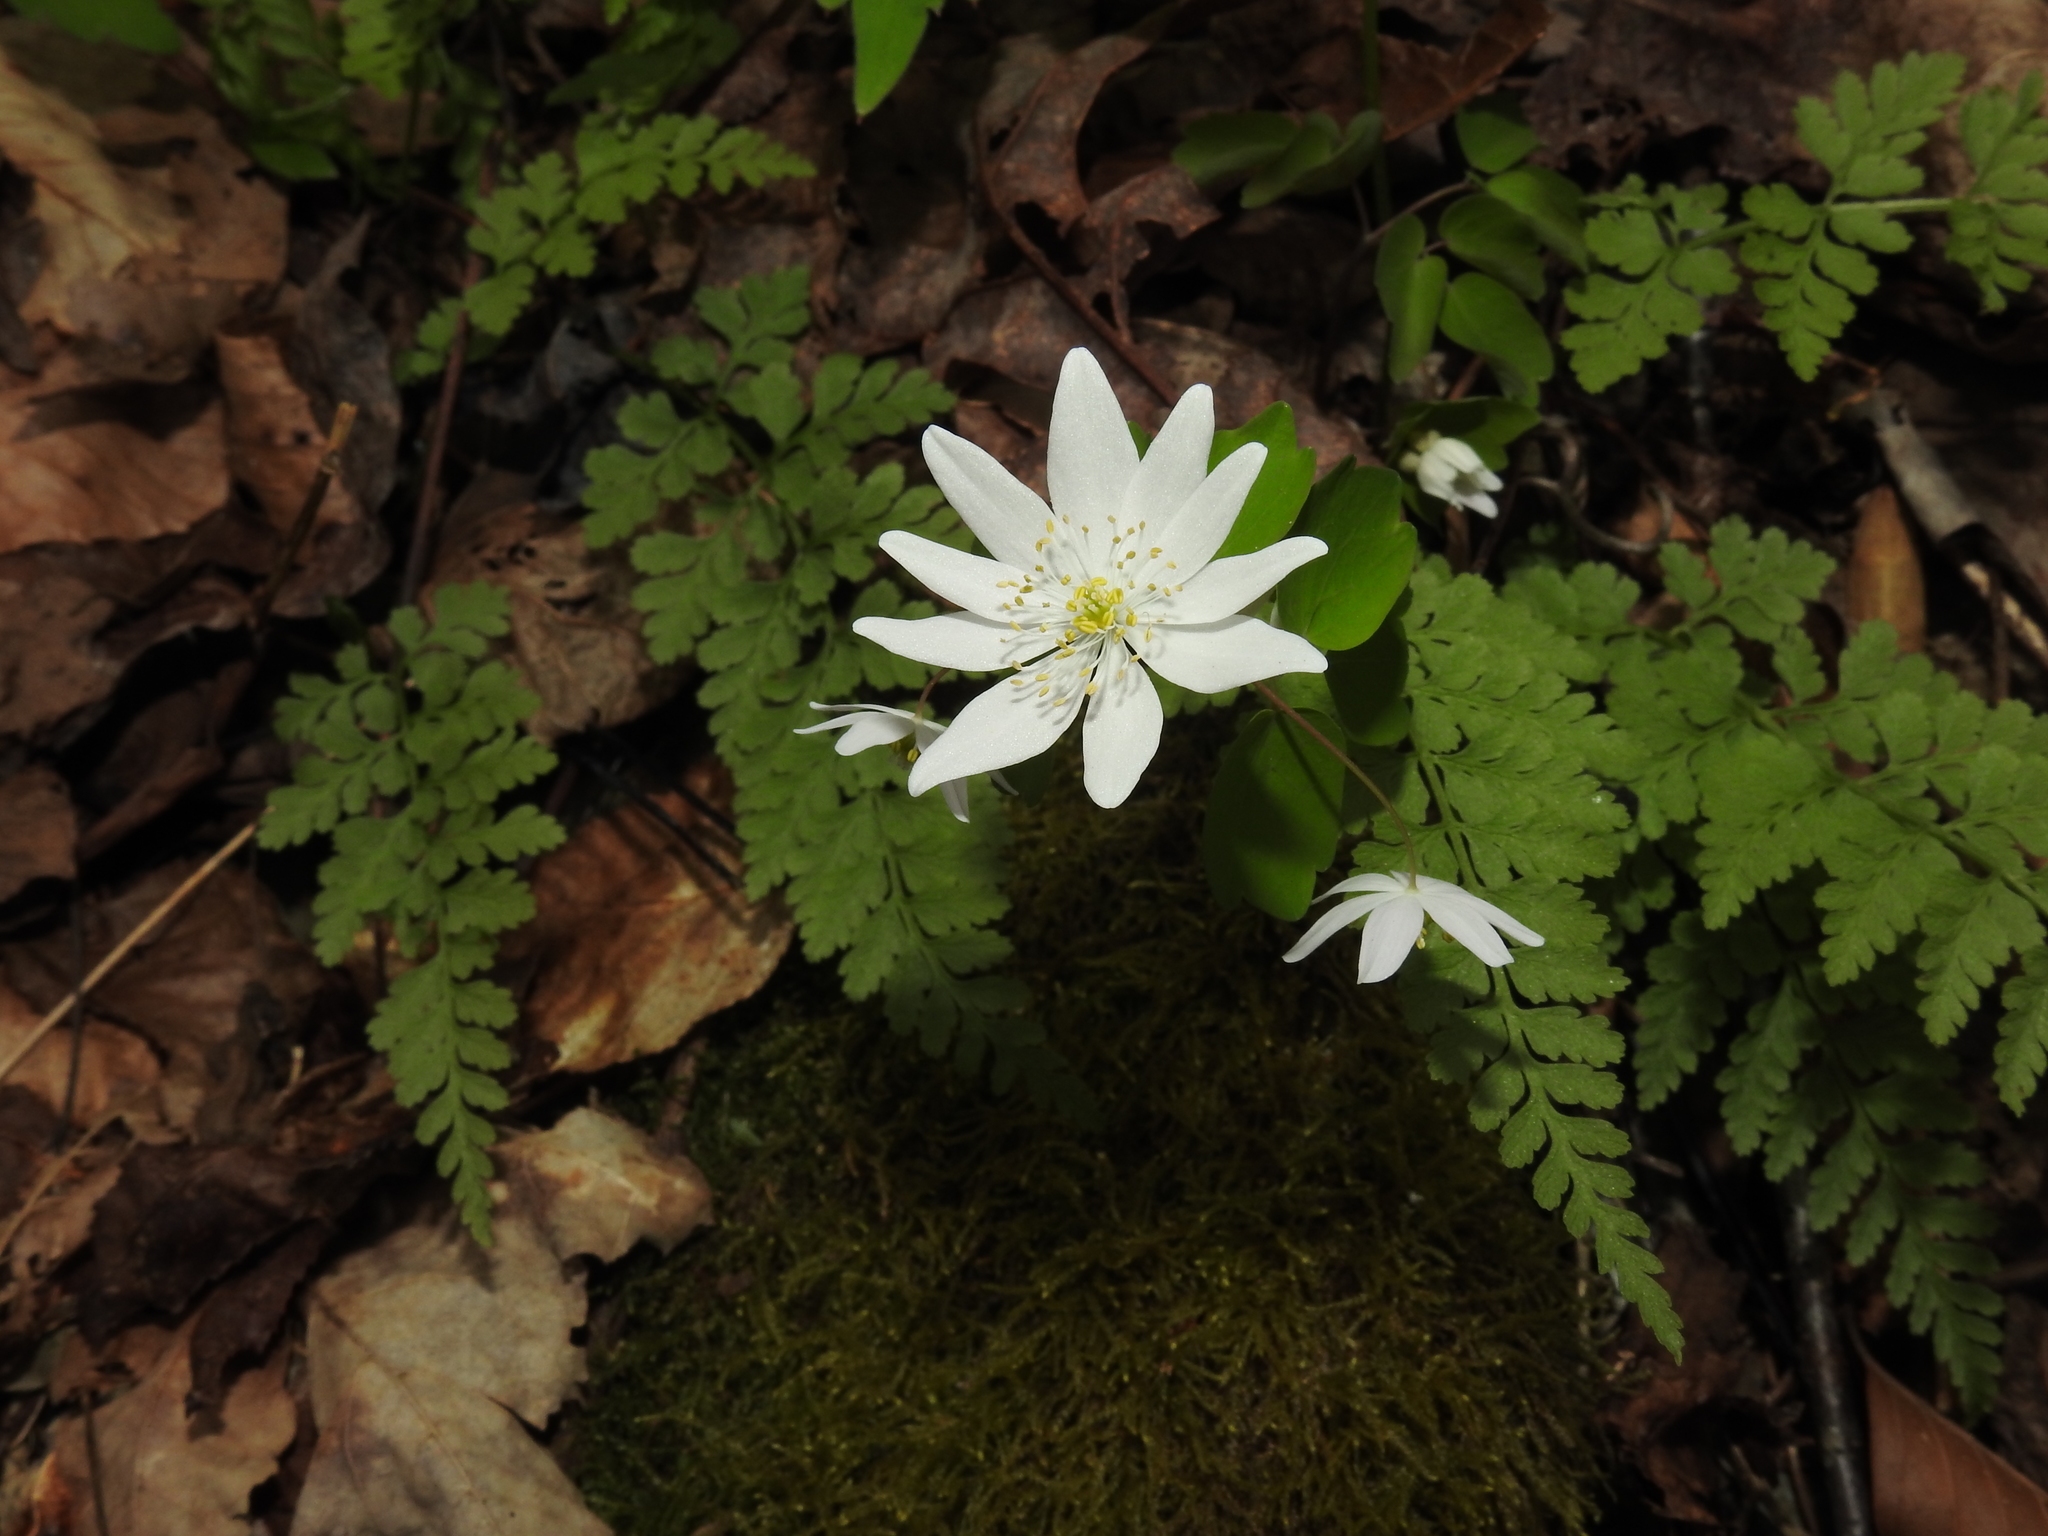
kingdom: Plantae
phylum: Tracheophyta
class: Magnoliopsida
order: Ranunculales
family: Ranunculaceae
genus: Thalictrum
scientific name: Thalictrum thalictroides
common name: Rue-anemone
